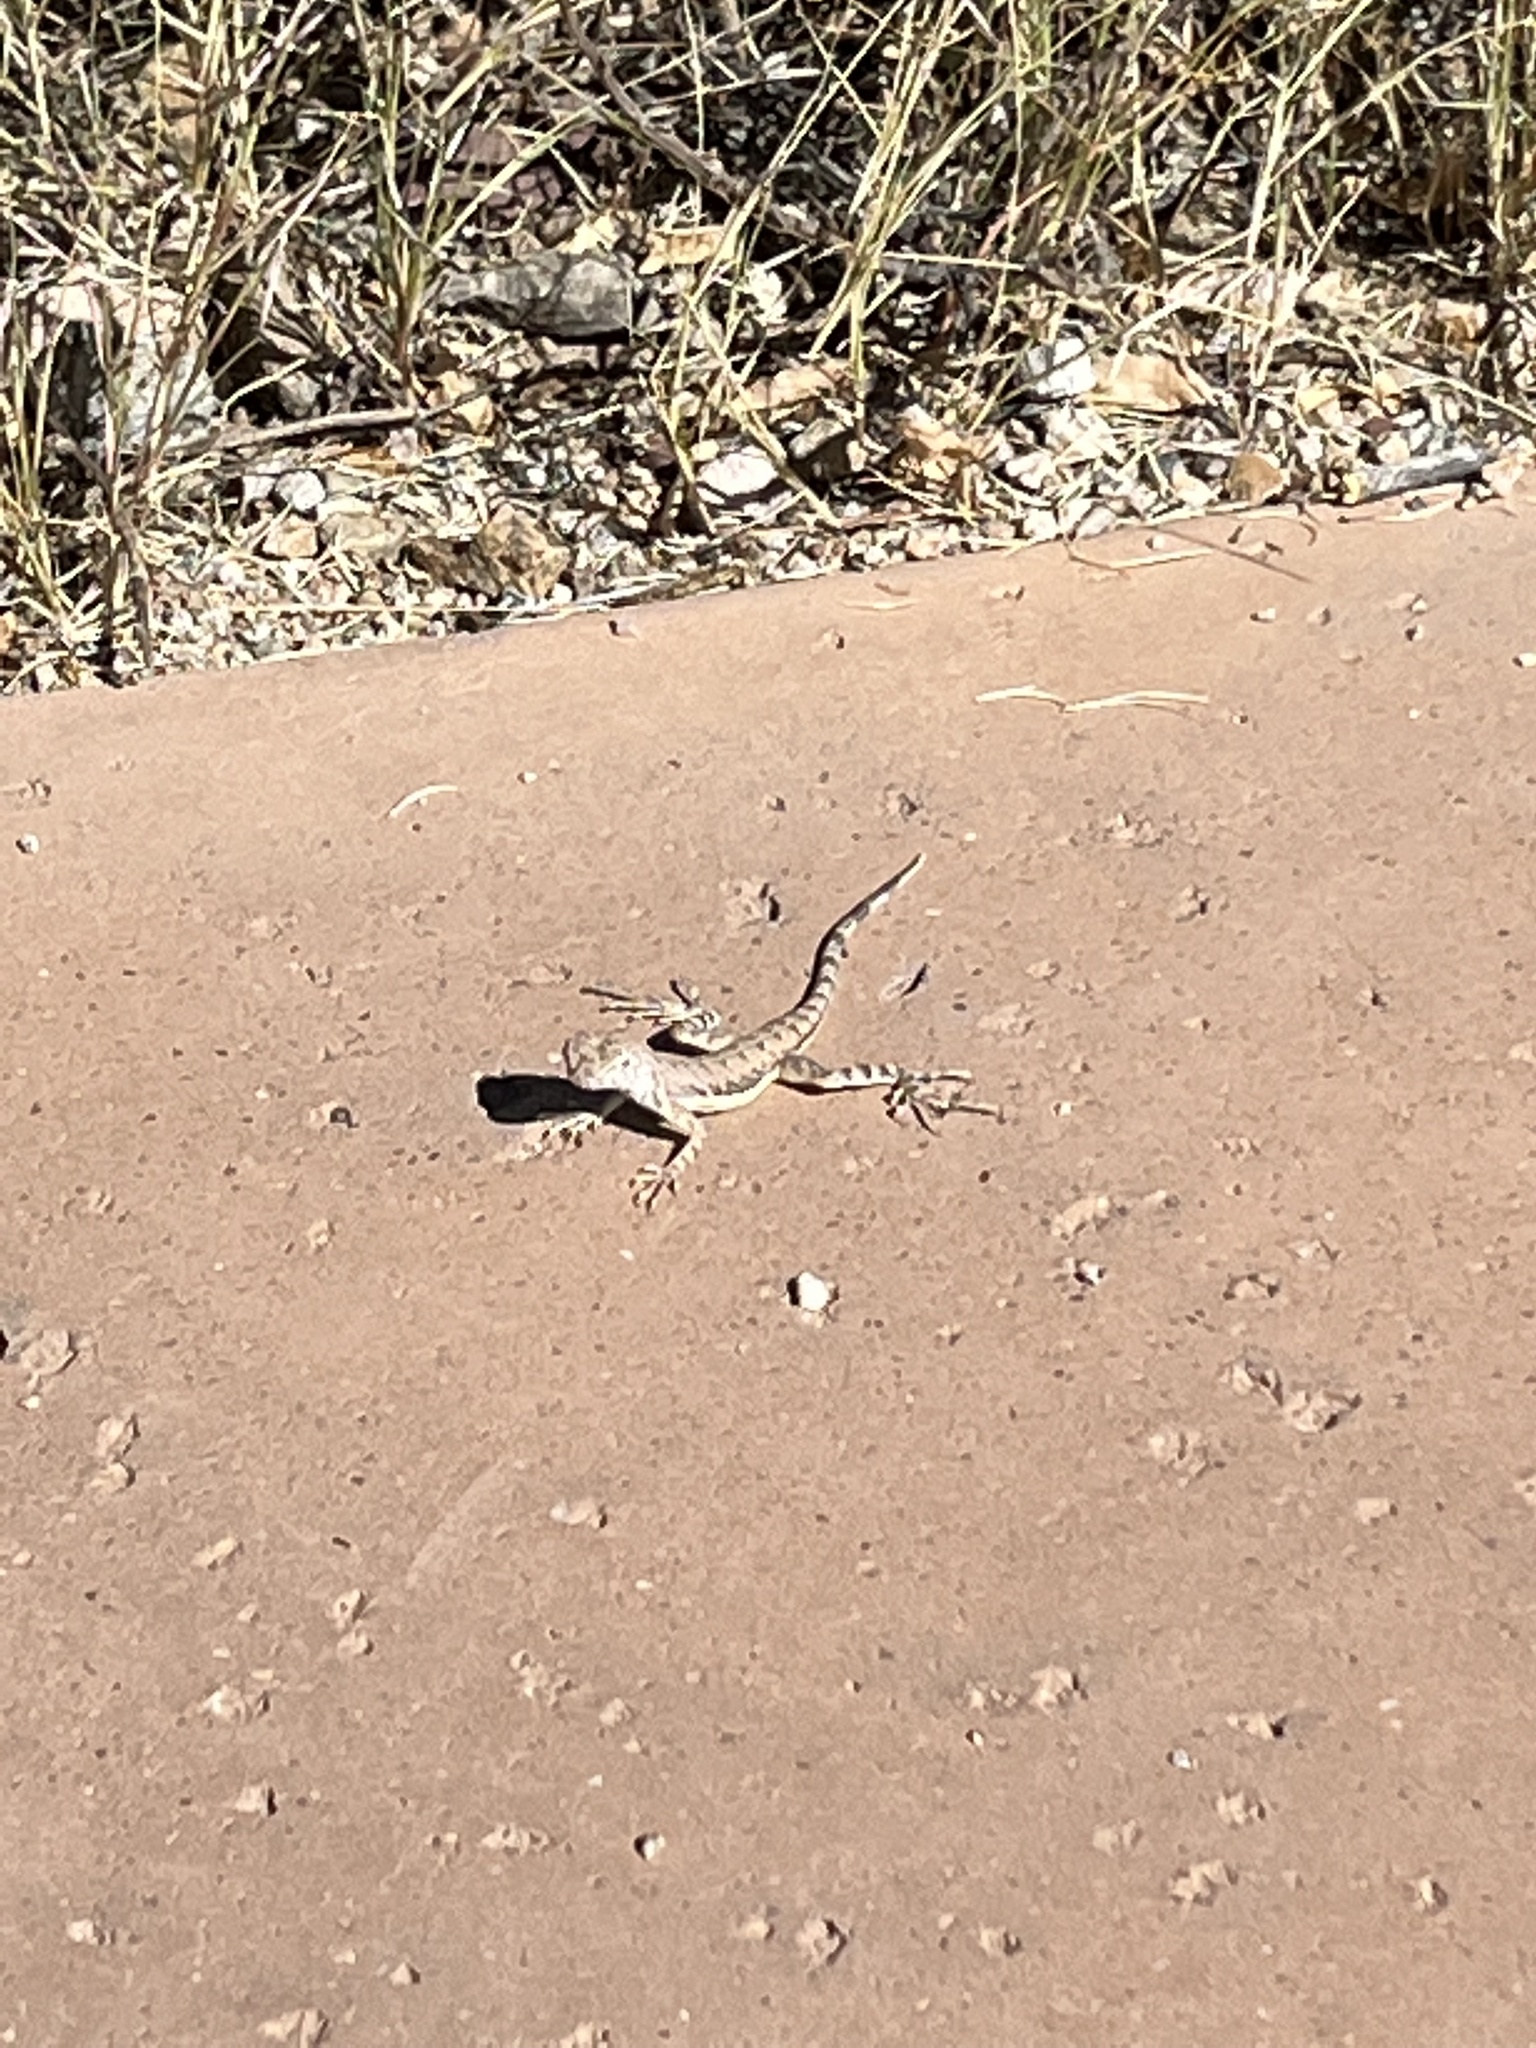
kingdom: Animalia
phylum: Chordata
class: Squamata
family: Phrynosomatidae
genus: Callisaurus
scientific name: Callisaurus draconoides
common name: Zebra-tailed lizard
